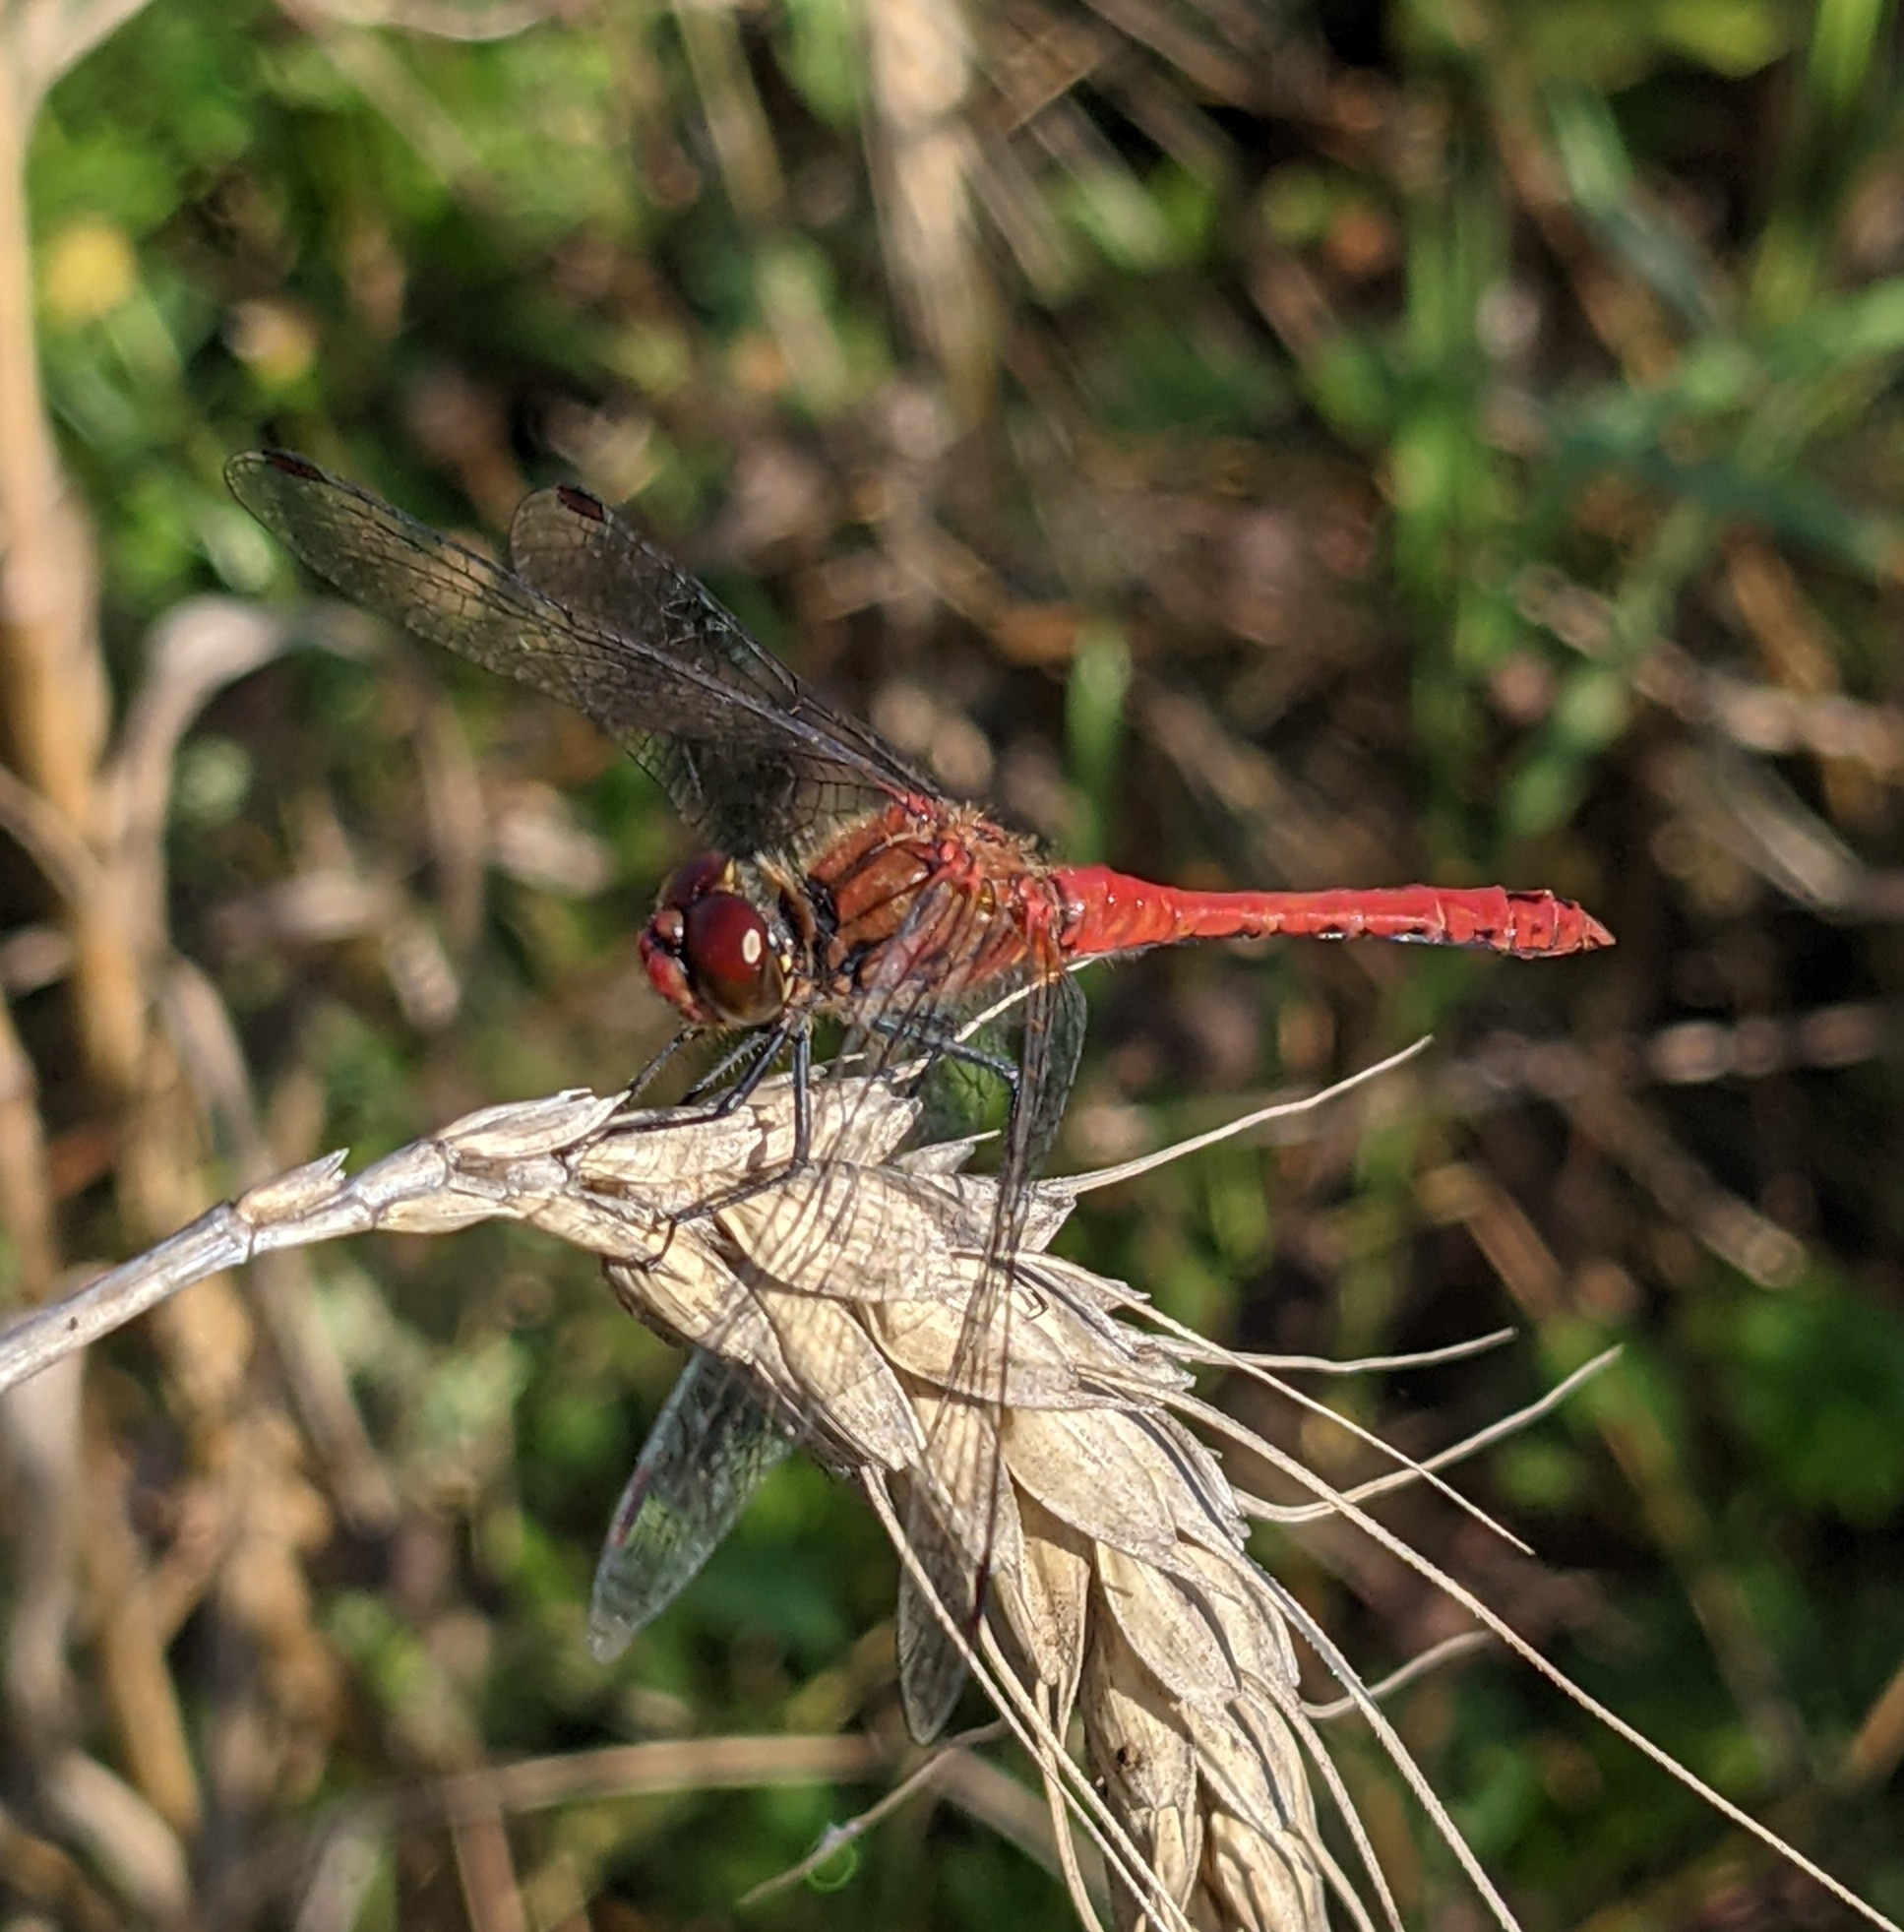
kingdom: Animalia
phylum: Arthropoda
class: Insecta
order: Odonata
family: Libellulidae
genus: Sympetrum
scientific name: Sympetrum sanguineum
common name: Ruddy darter
